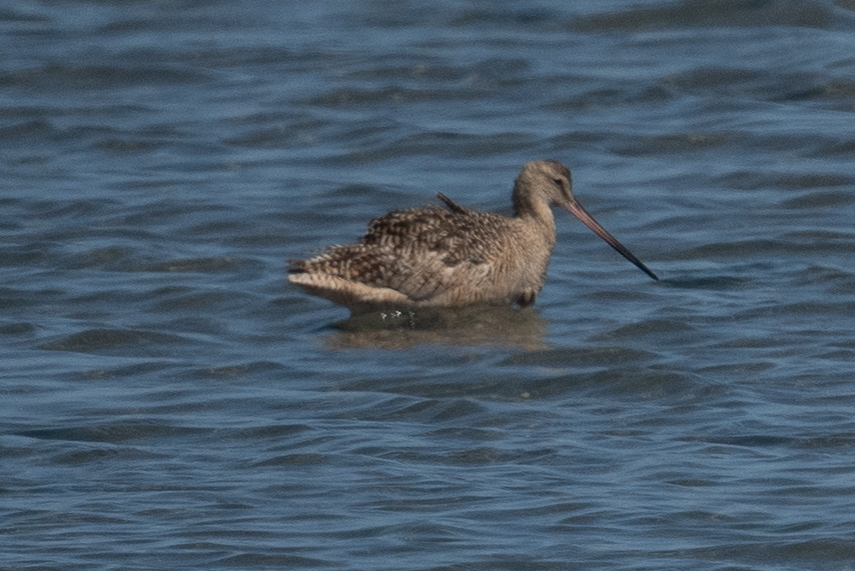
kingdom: Animalia
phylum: Chordata
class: Aves
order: Charadriiformes
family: Scolopacidae
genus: Limosa
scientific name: Limosa fedoa
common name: Marbled godwit
